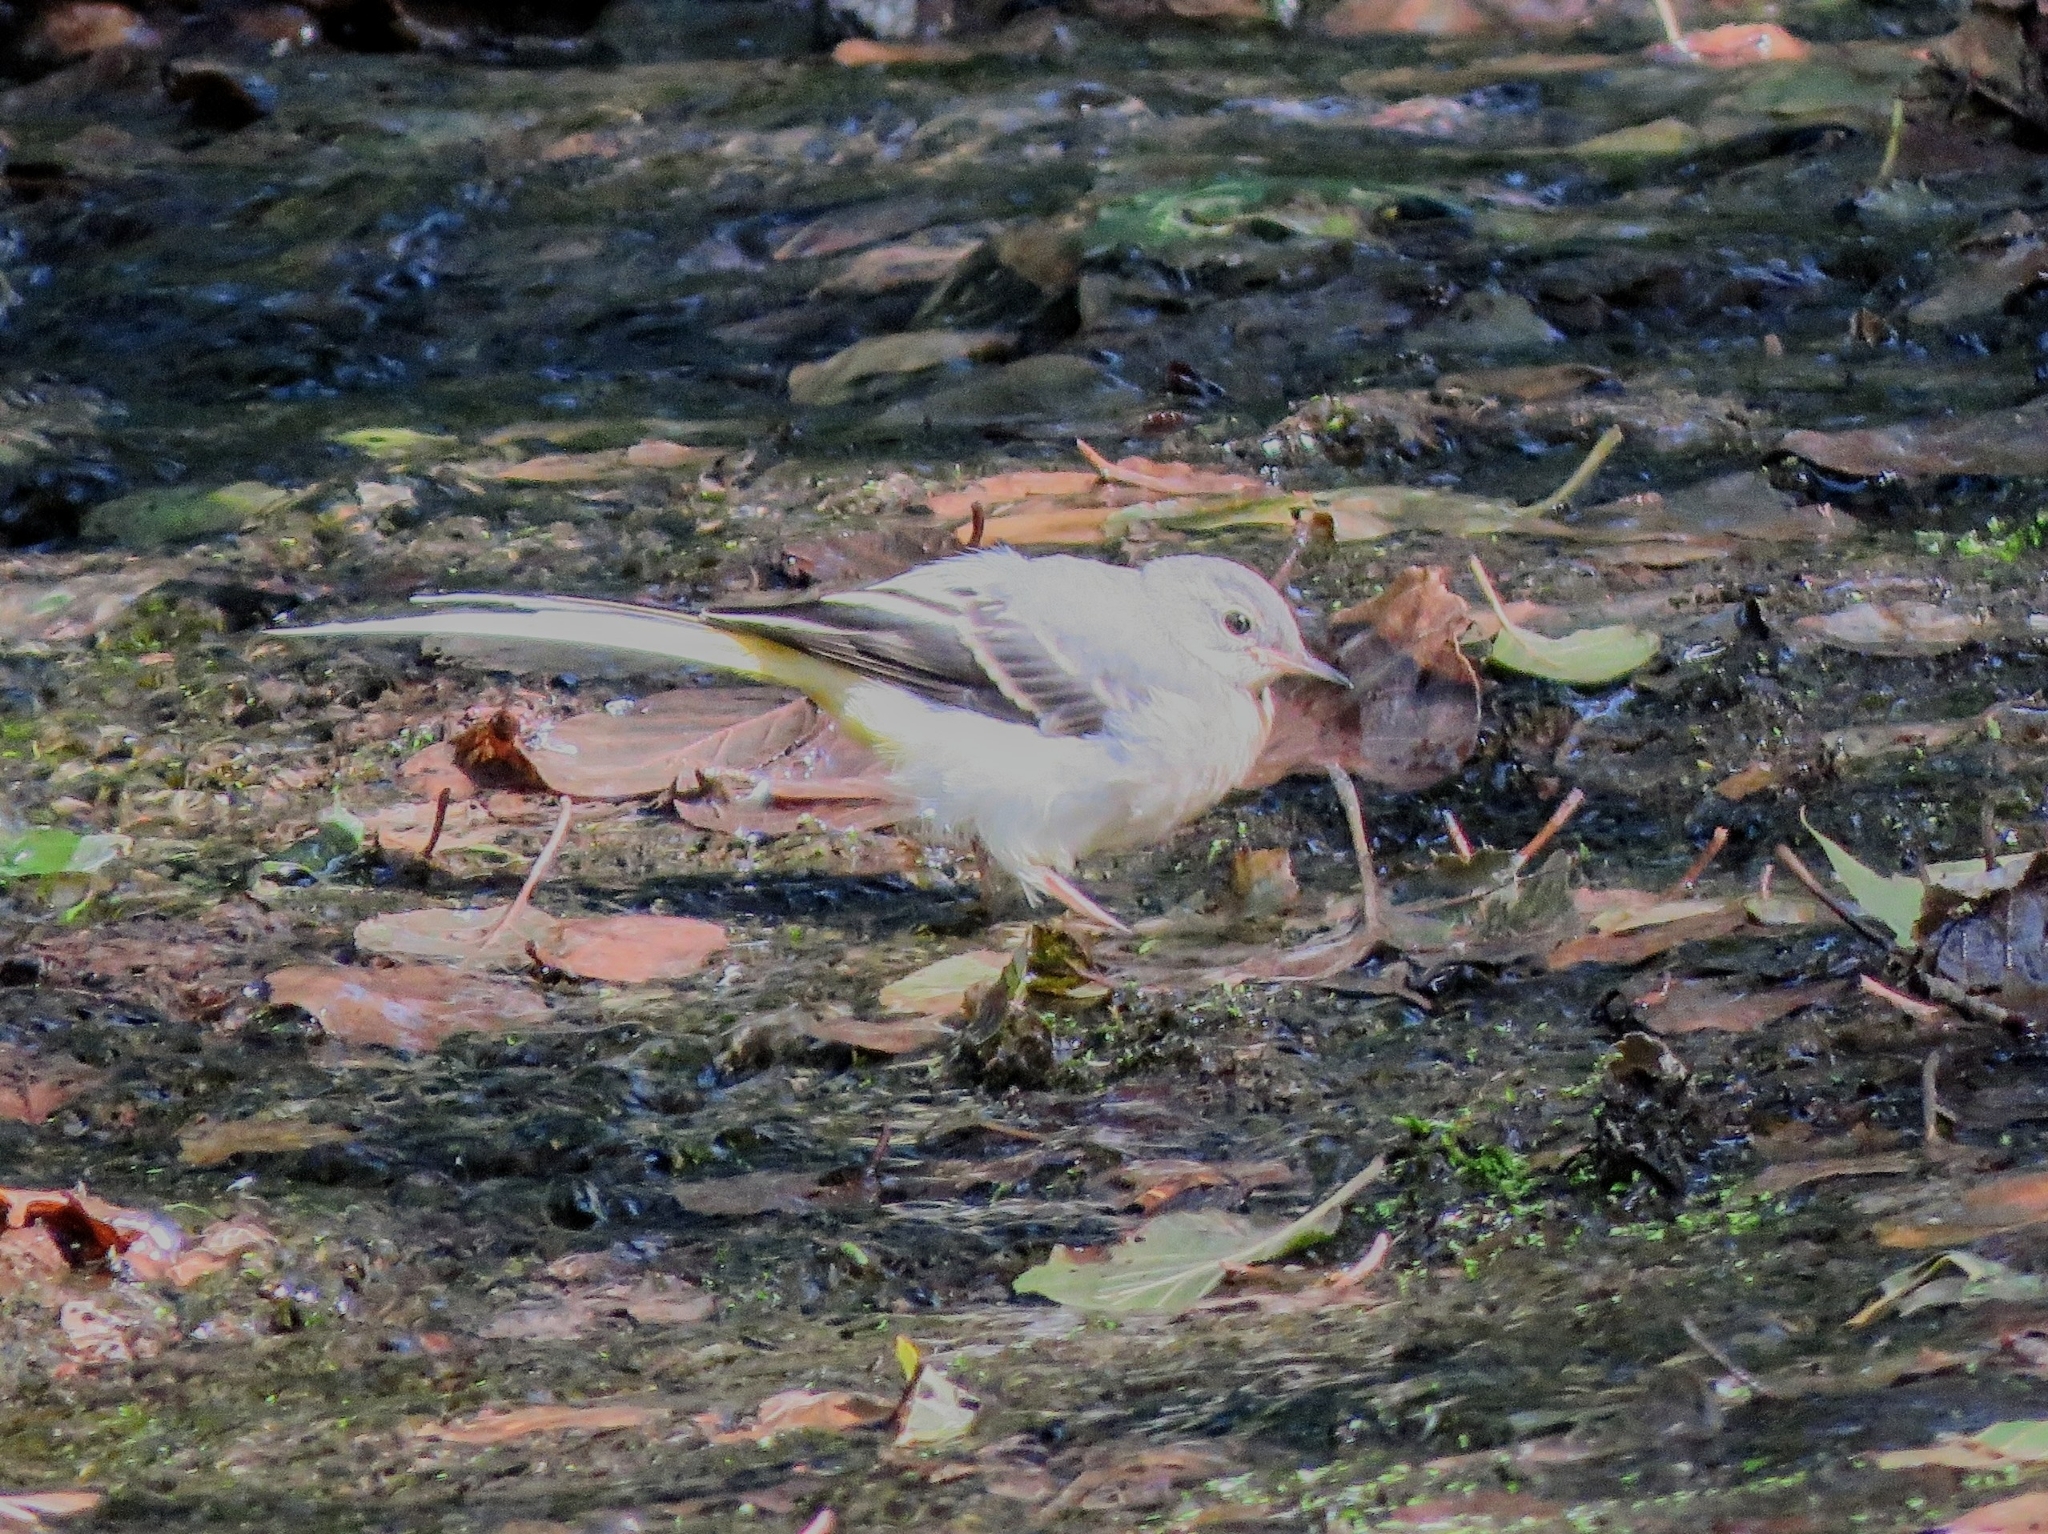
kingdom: Animalia
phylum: Chordata
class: Aves
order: Passeriformes
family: Motacillidae
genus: Motacilla
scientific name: Motacilla cinerea
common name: Grey wagtail
